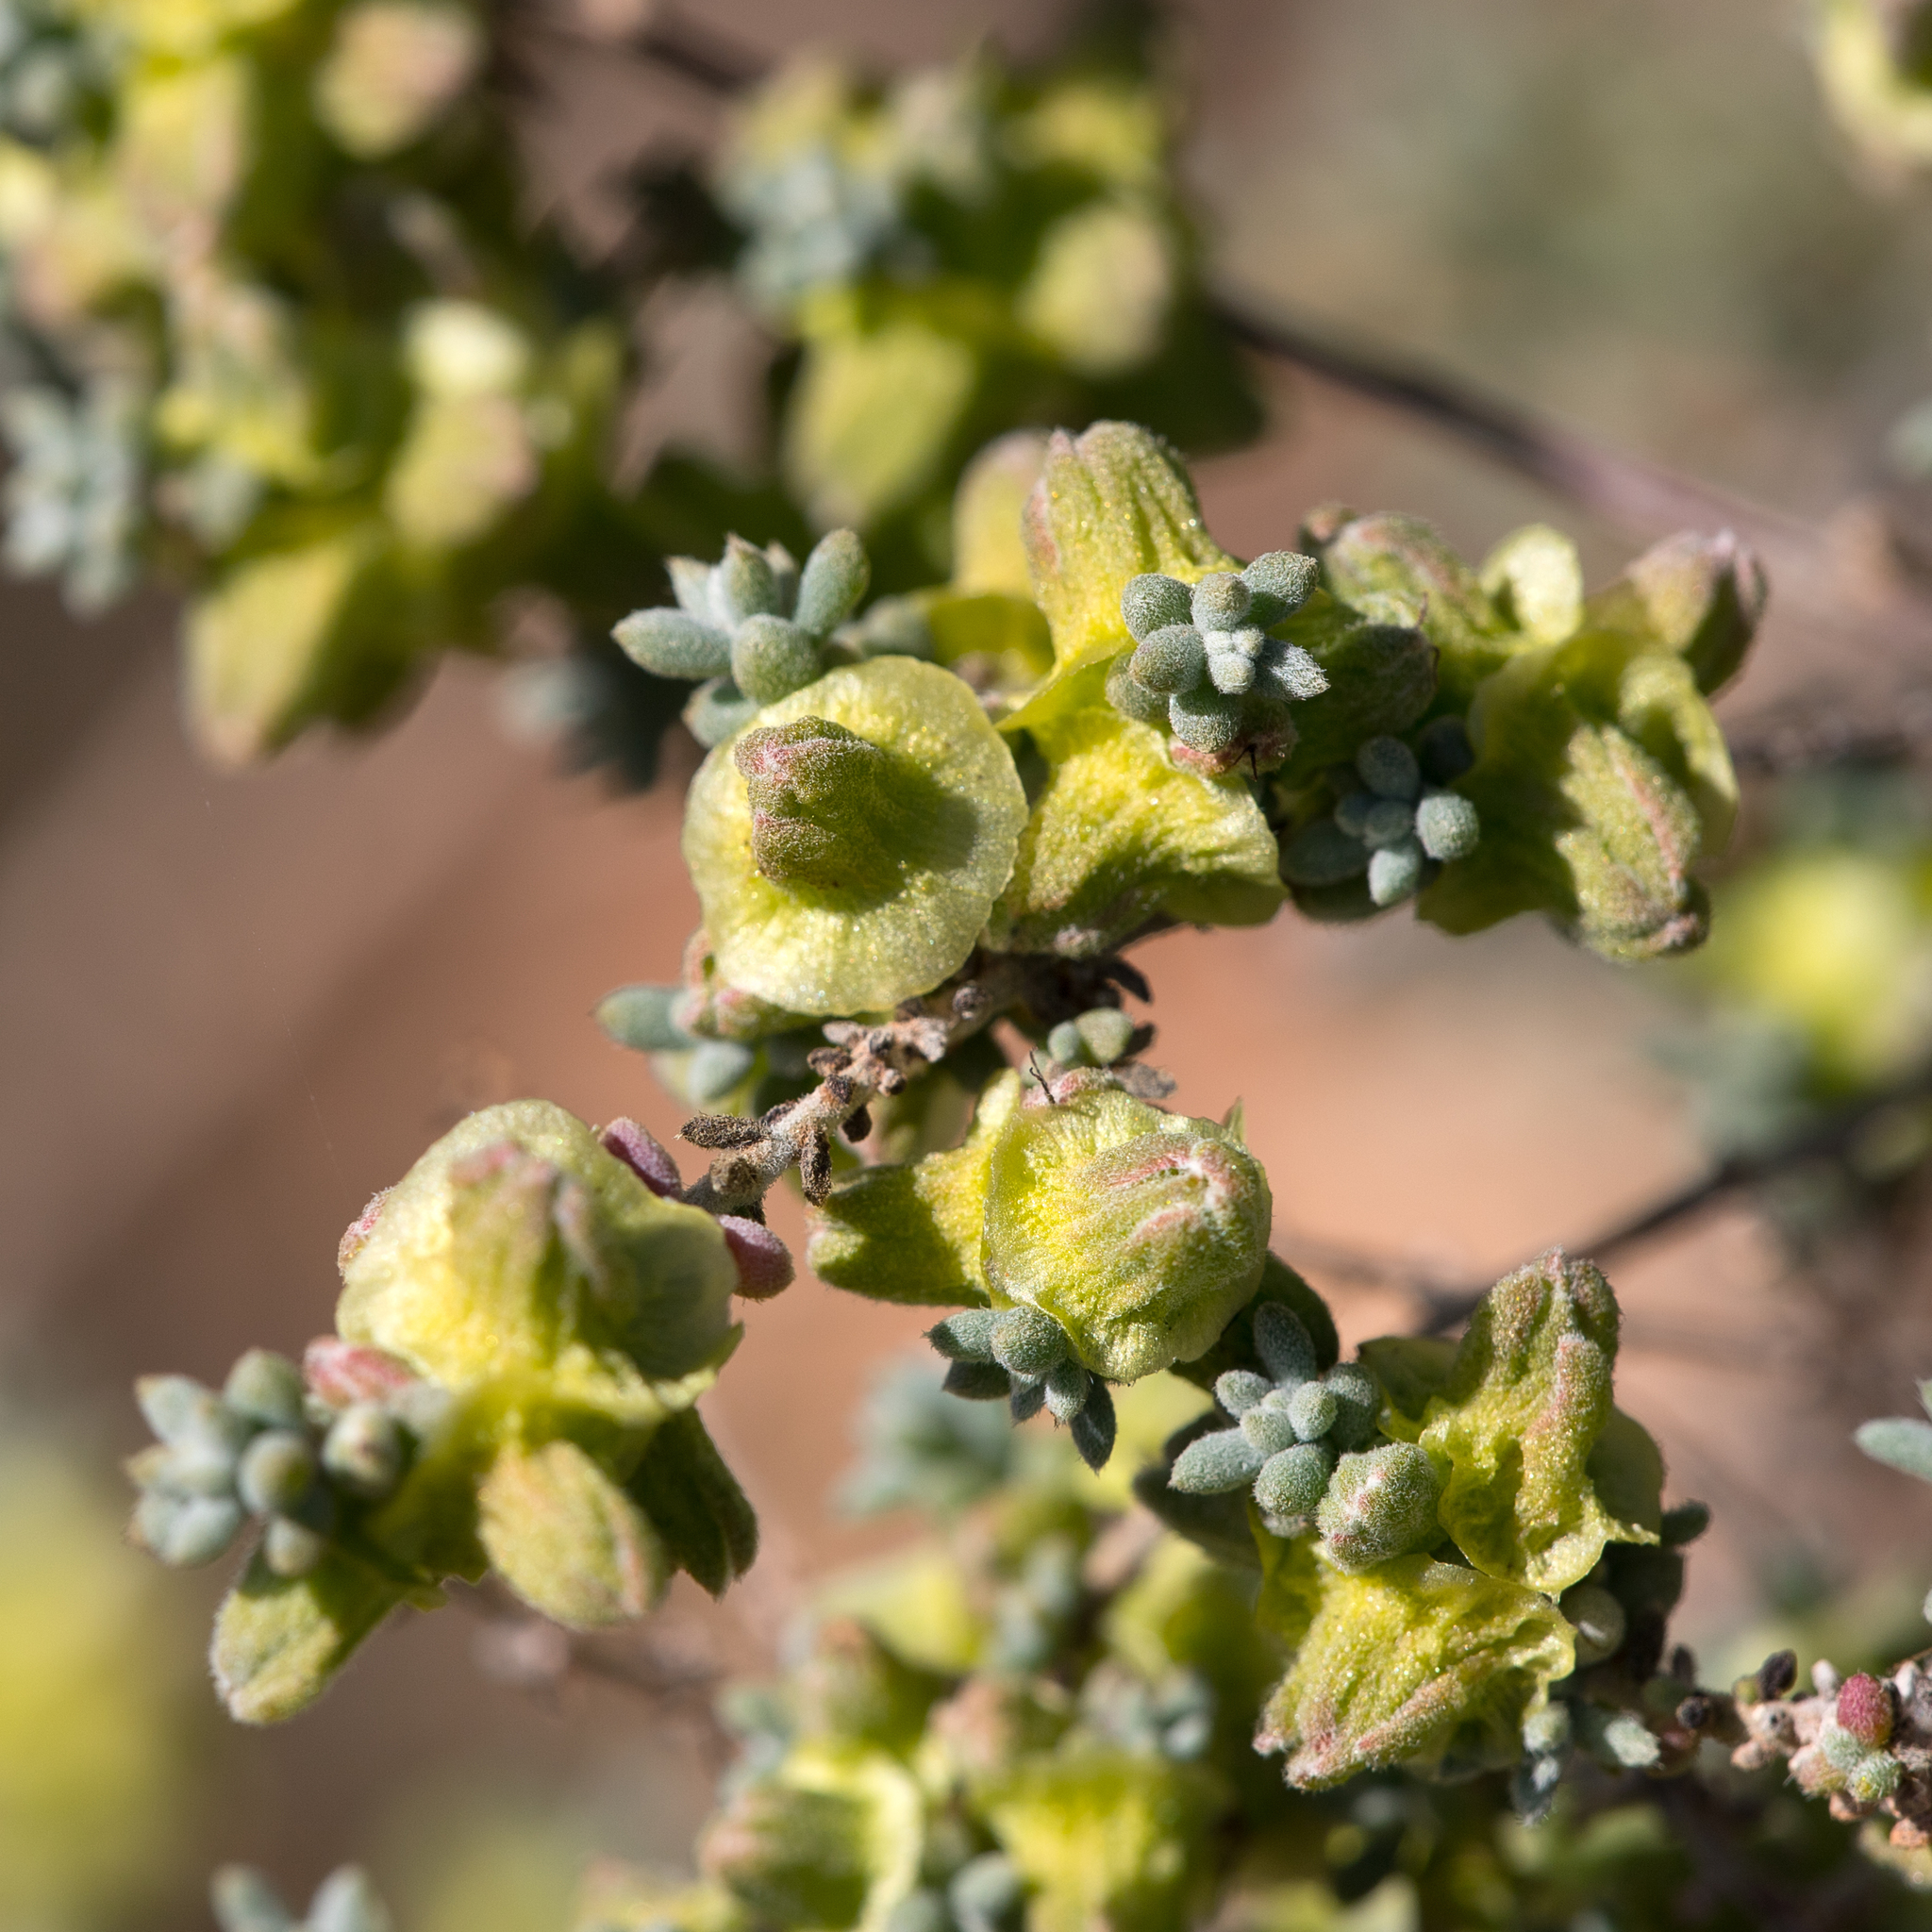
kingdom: Plantae
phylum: Tracheophyta
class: Magnoliopsida
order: Caryophyllales
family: Amaranthaceae
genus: Maireana
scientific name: Maireana pyramidata
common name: Sagobush
